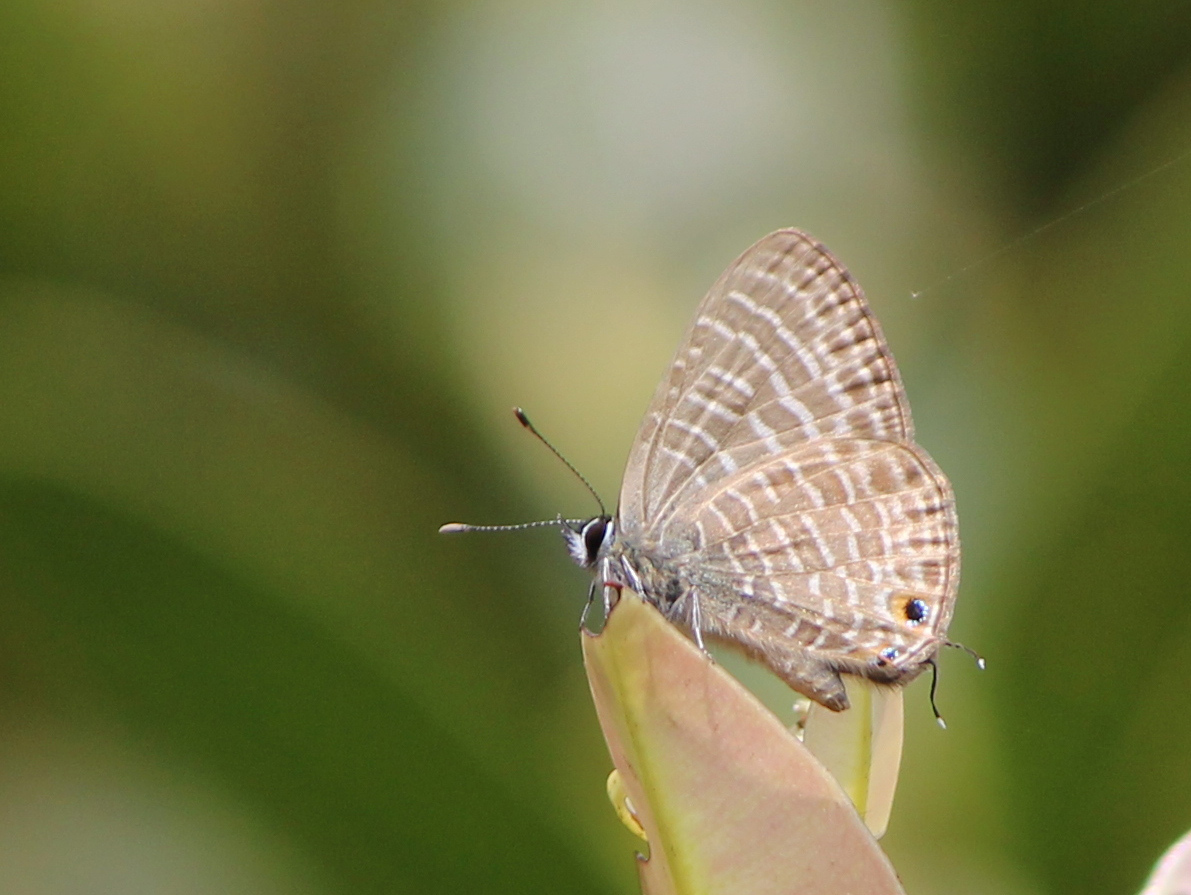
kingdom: Animalia
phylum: Arthropoda
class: Insecta
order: Lepidoptera
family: Lycaenidae
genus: Nacaduba
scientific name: Nacaduba kurava
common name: Transparent 6-line blue
